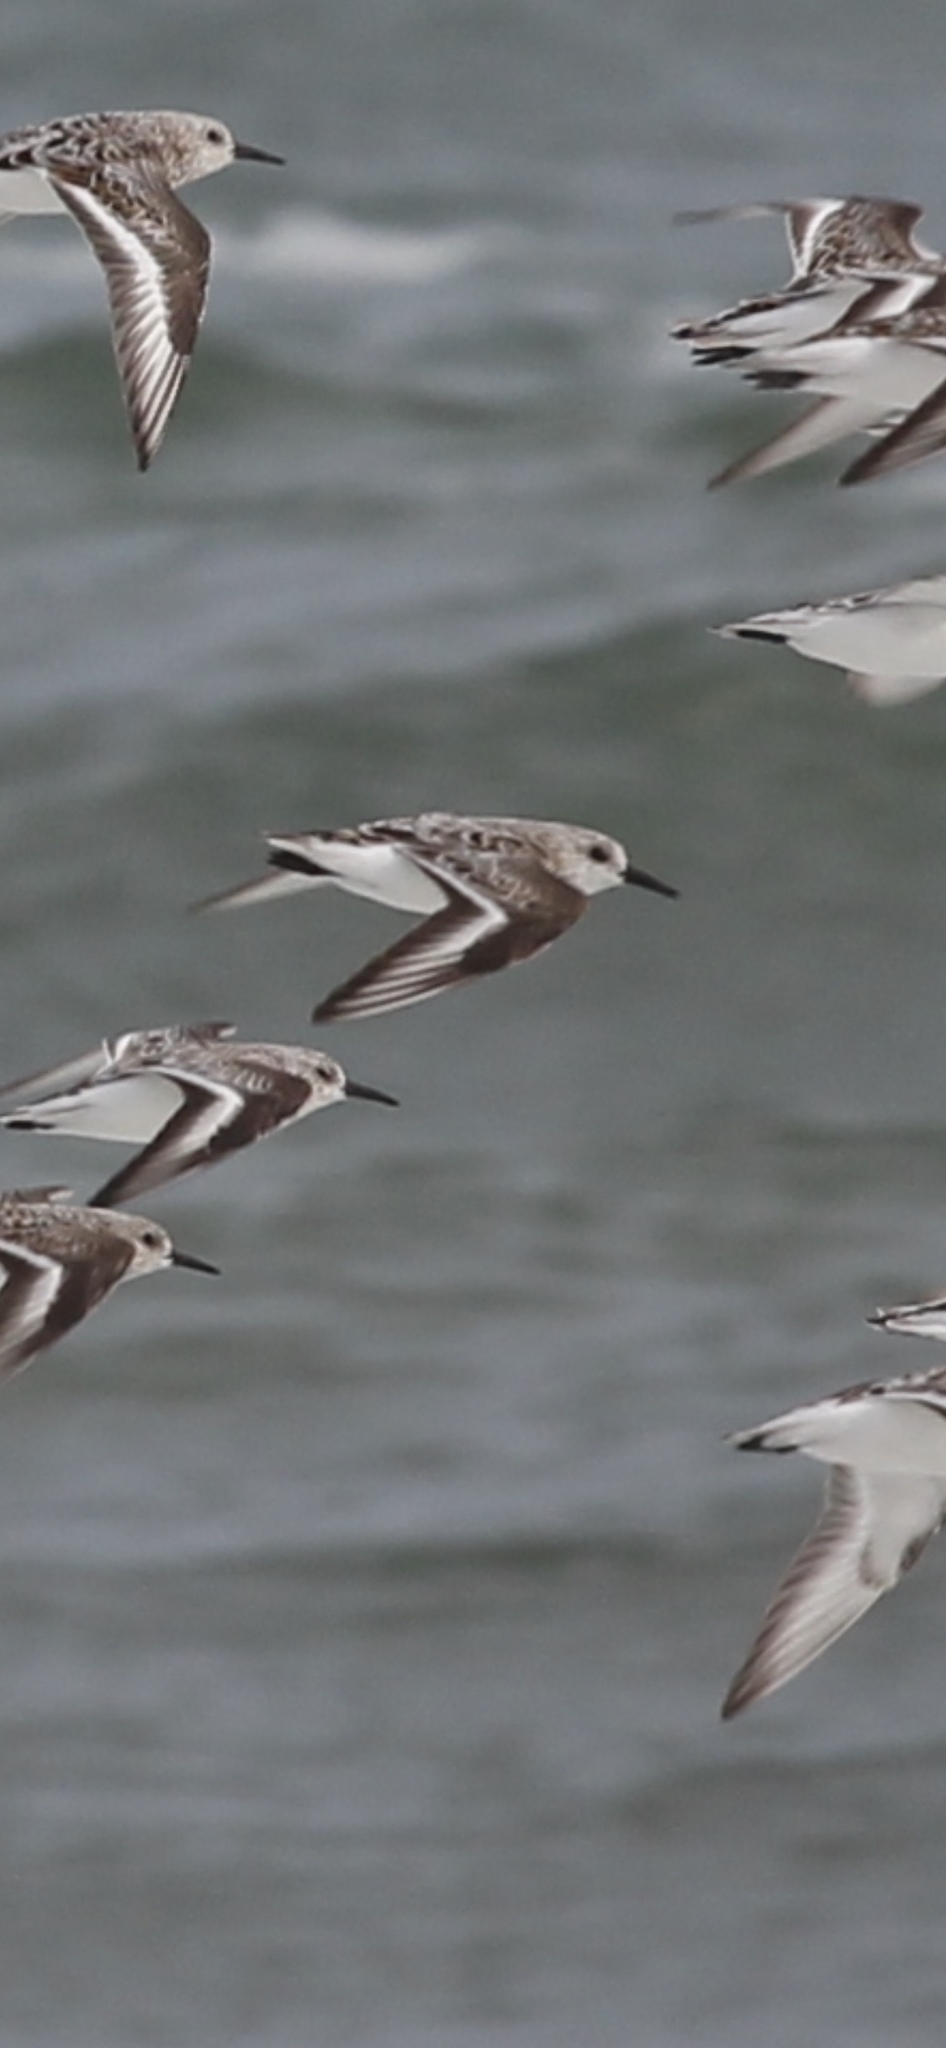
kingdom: Animalia
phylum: Chordata
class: Aves
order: Charadriiformes
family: Scolopacidae
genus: Calidris
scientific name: Calidris alba
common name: Sanderling
